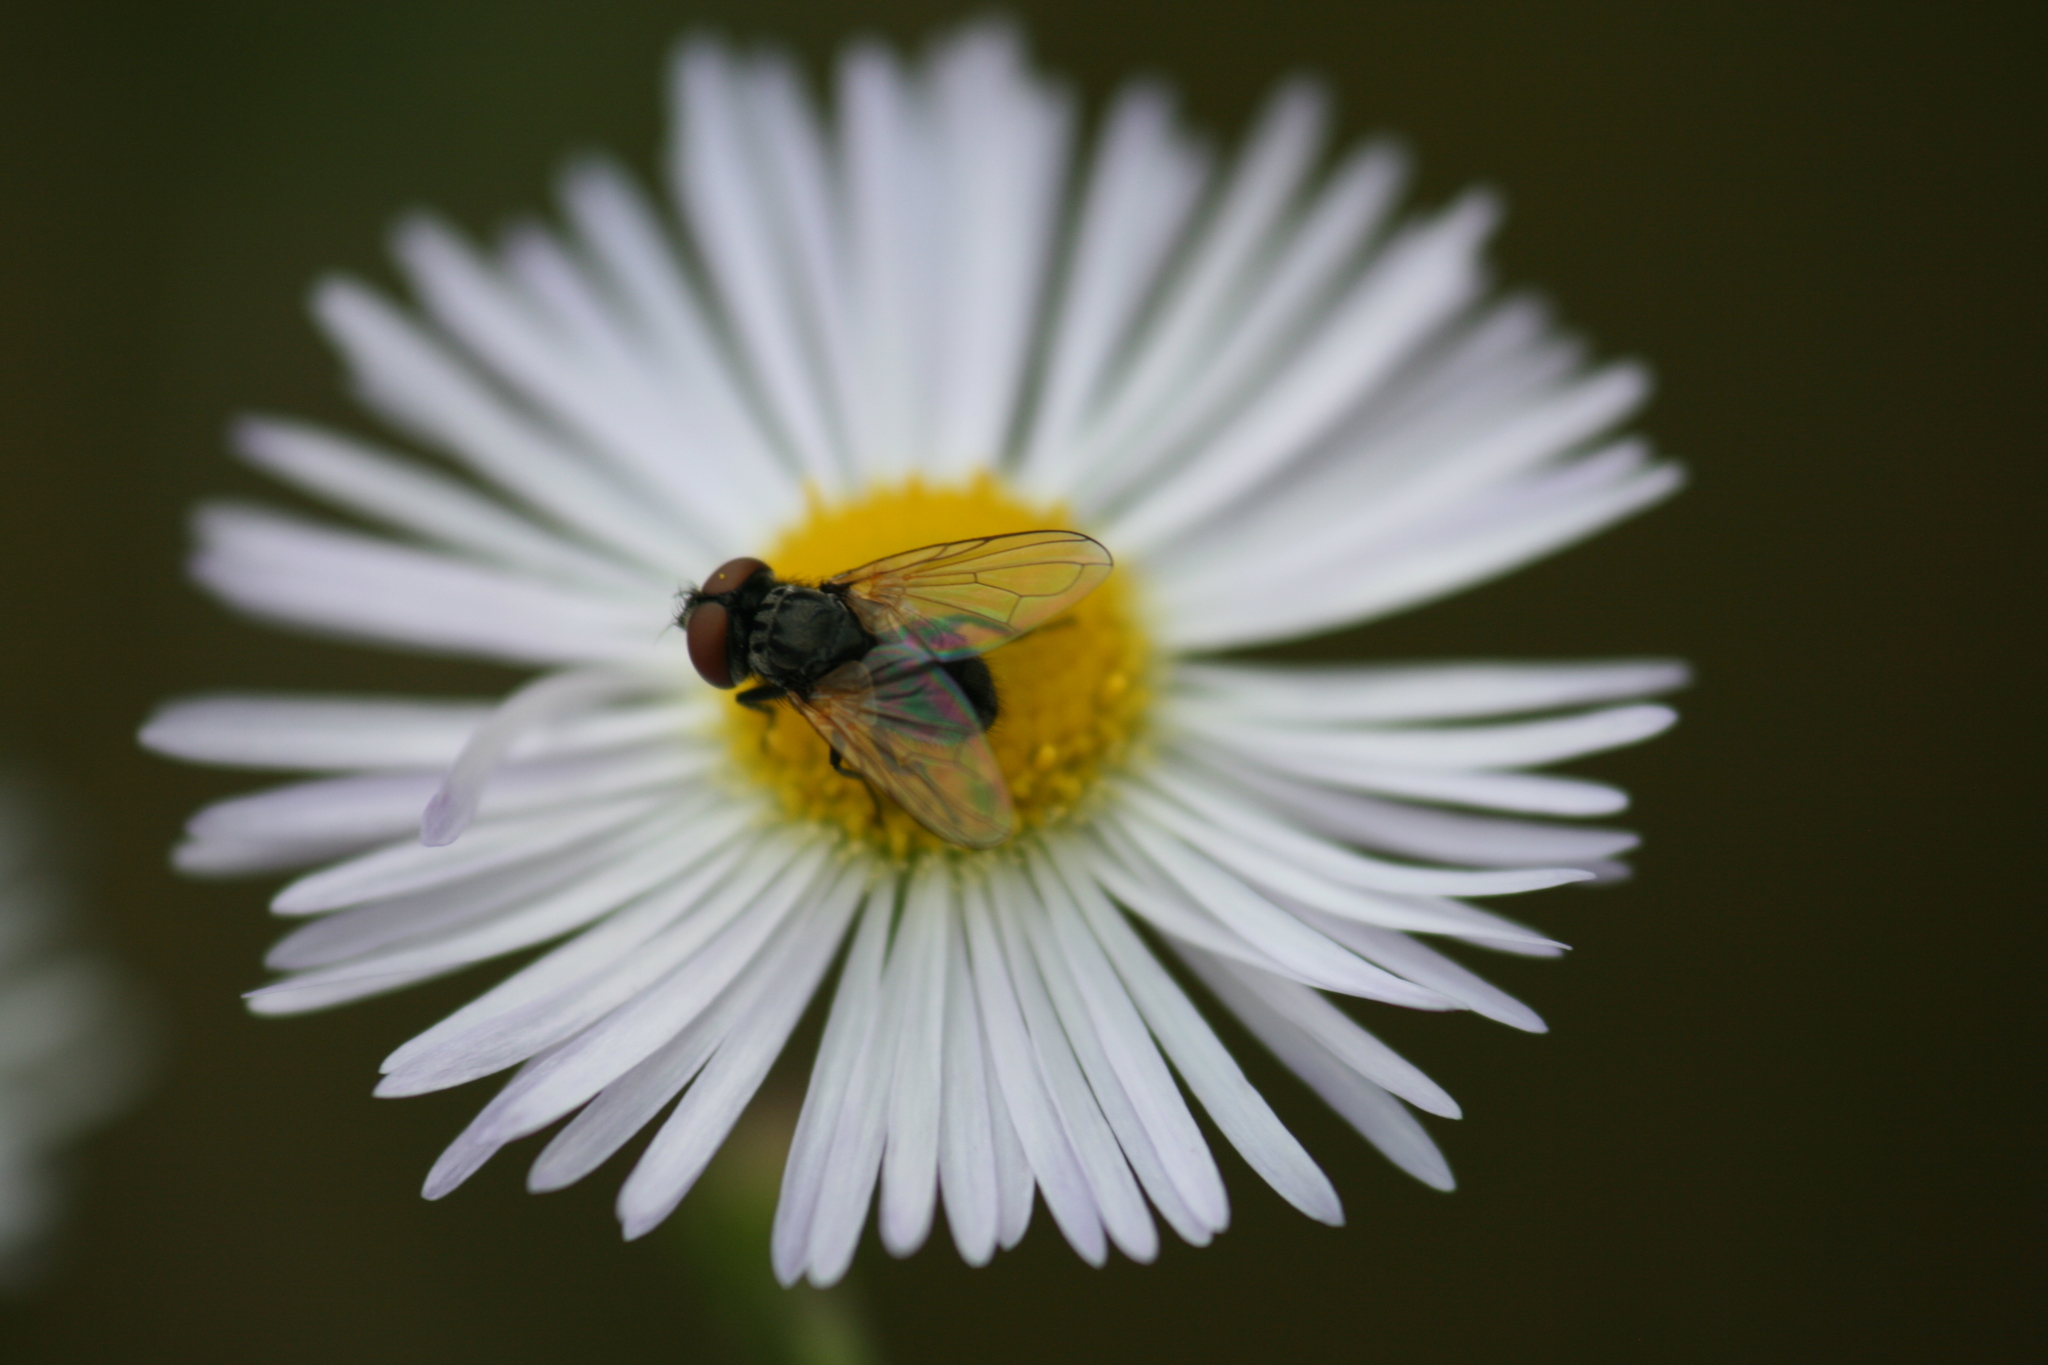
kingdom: Animalia
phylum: Arthropoda
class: Insecta
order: Diptera
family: Tachinidae
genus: Phasia
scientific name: Phasia obesa
